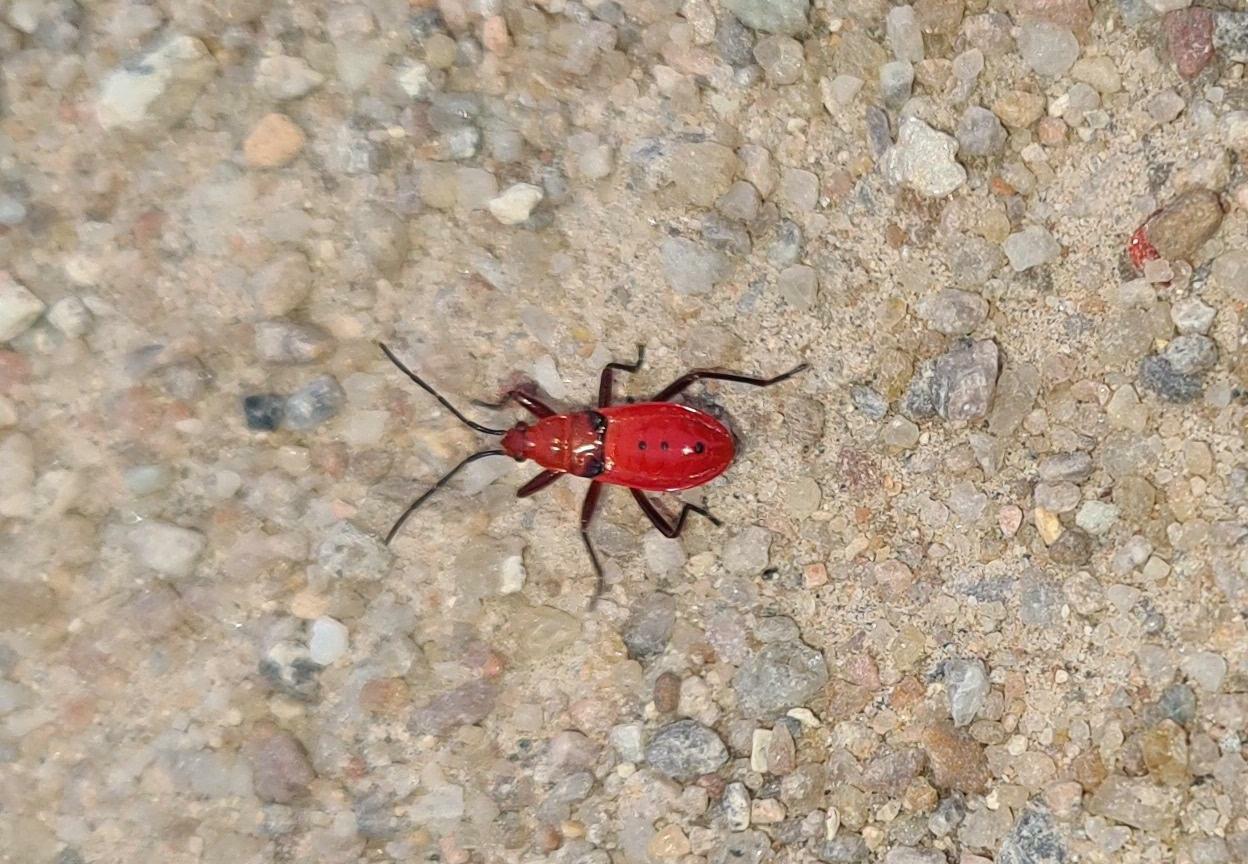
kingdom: Animalia
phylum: Arthropoda
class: Insecta
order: Hemiptera
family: Pyrrhocoridae
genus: Probergrothius
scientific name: Probergrothius
